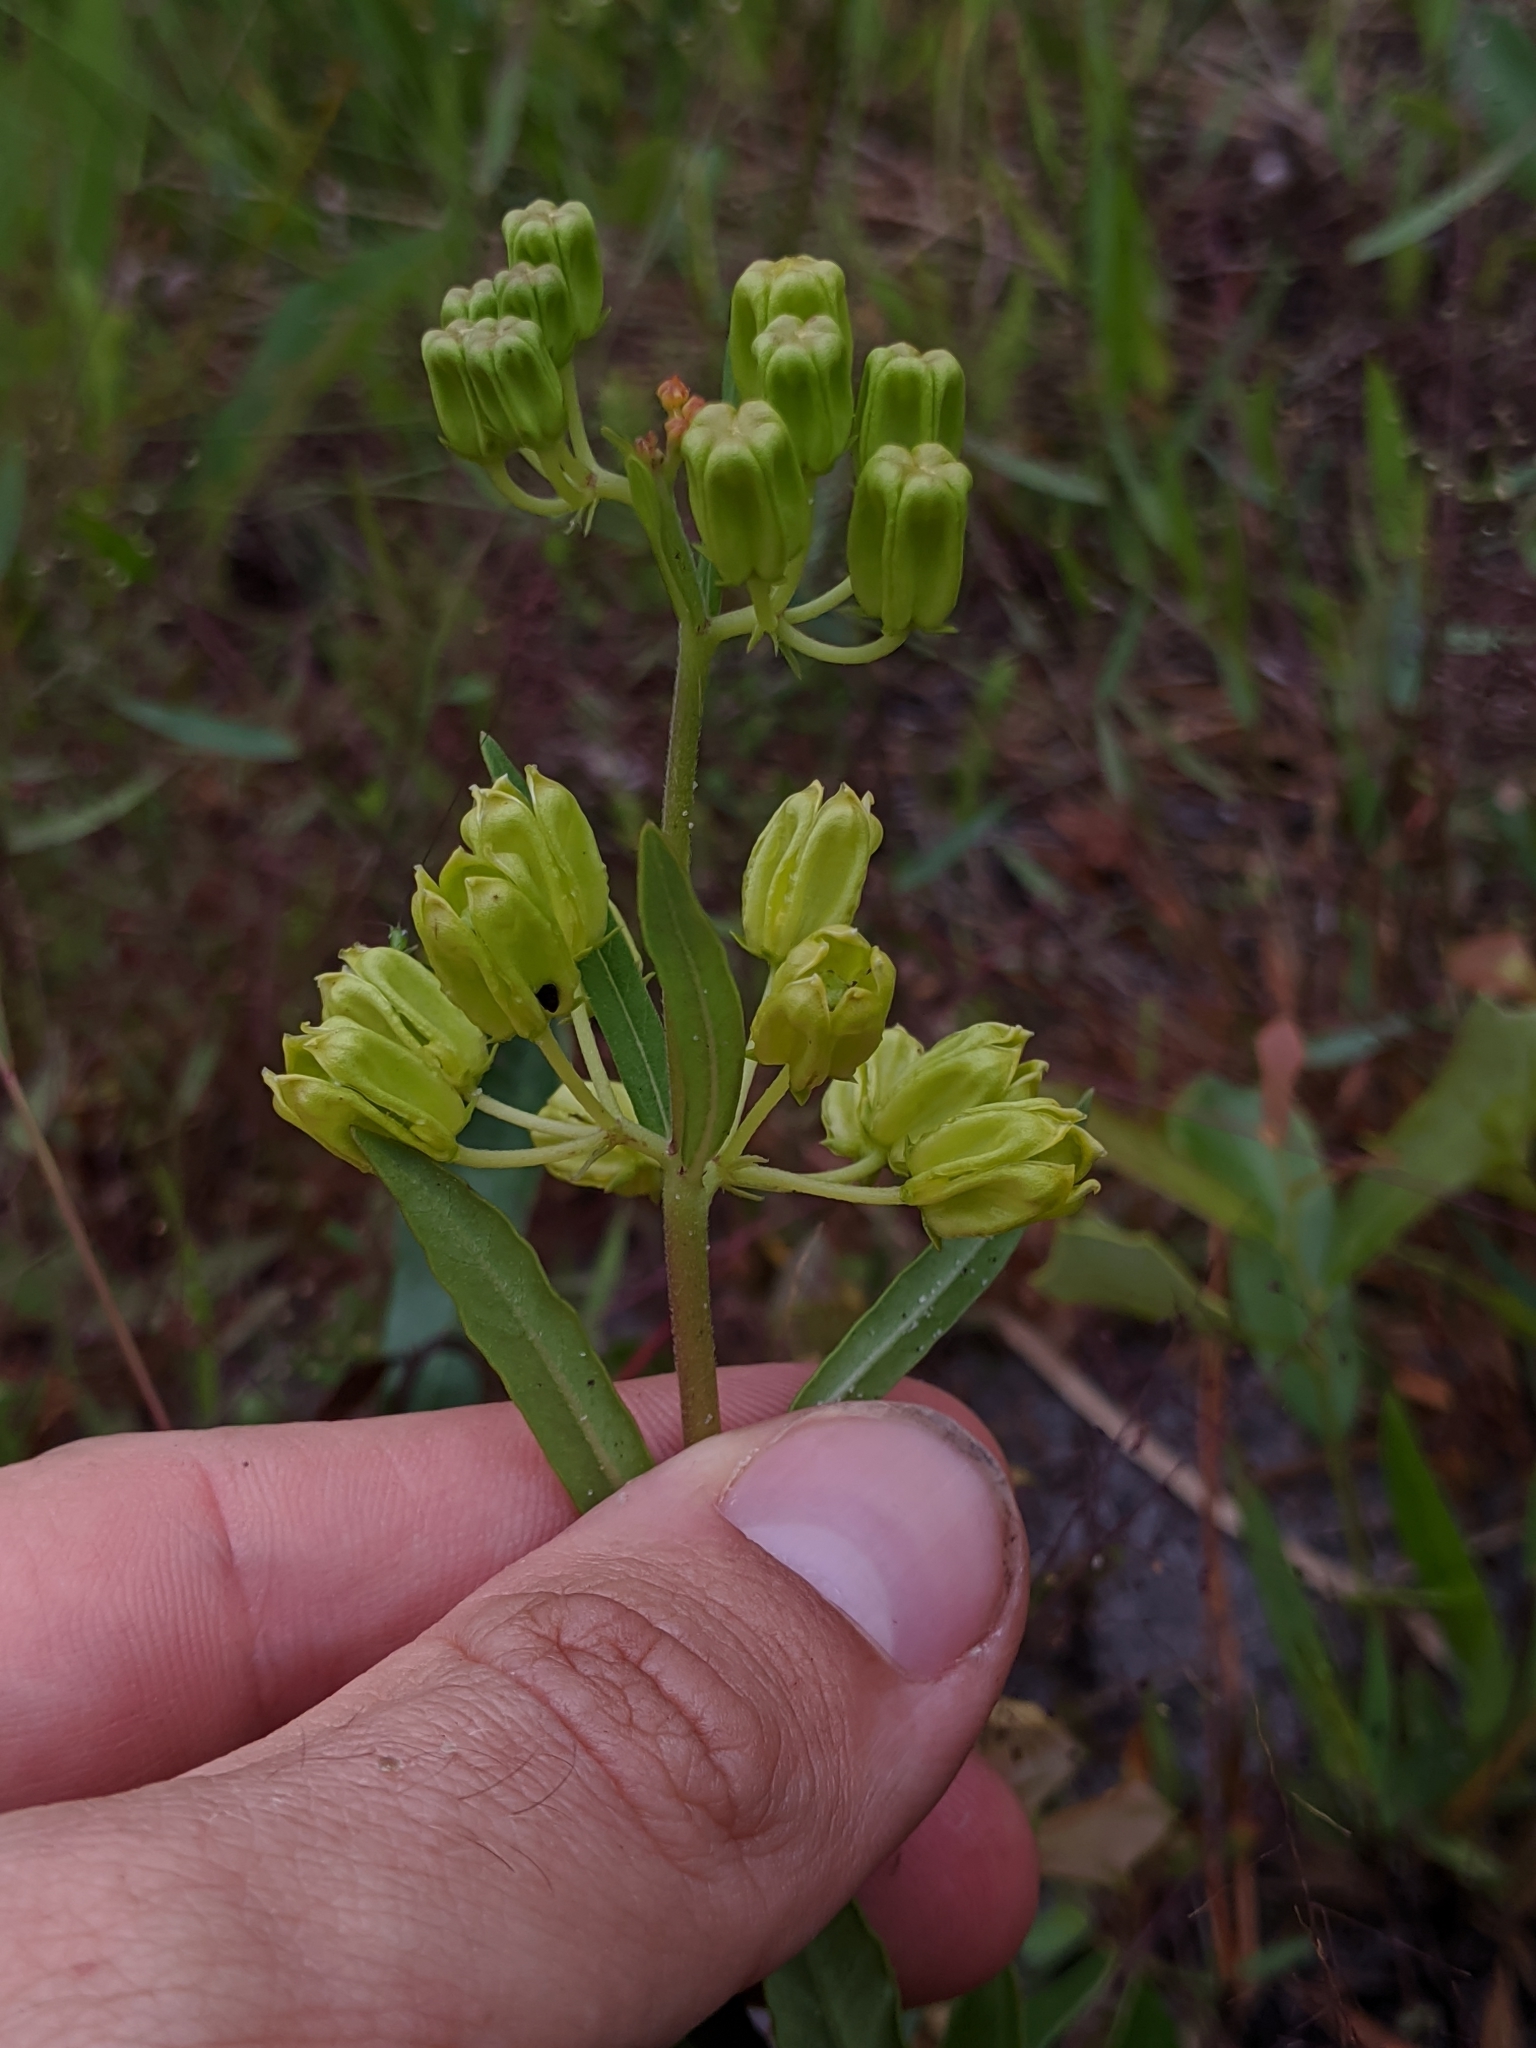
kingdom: Plantae
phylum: Tracheophyta
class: Magnoliopsida
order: Gentianales
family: Apocynaceae
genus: Asclepias
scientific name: Asclepias pedicellata
